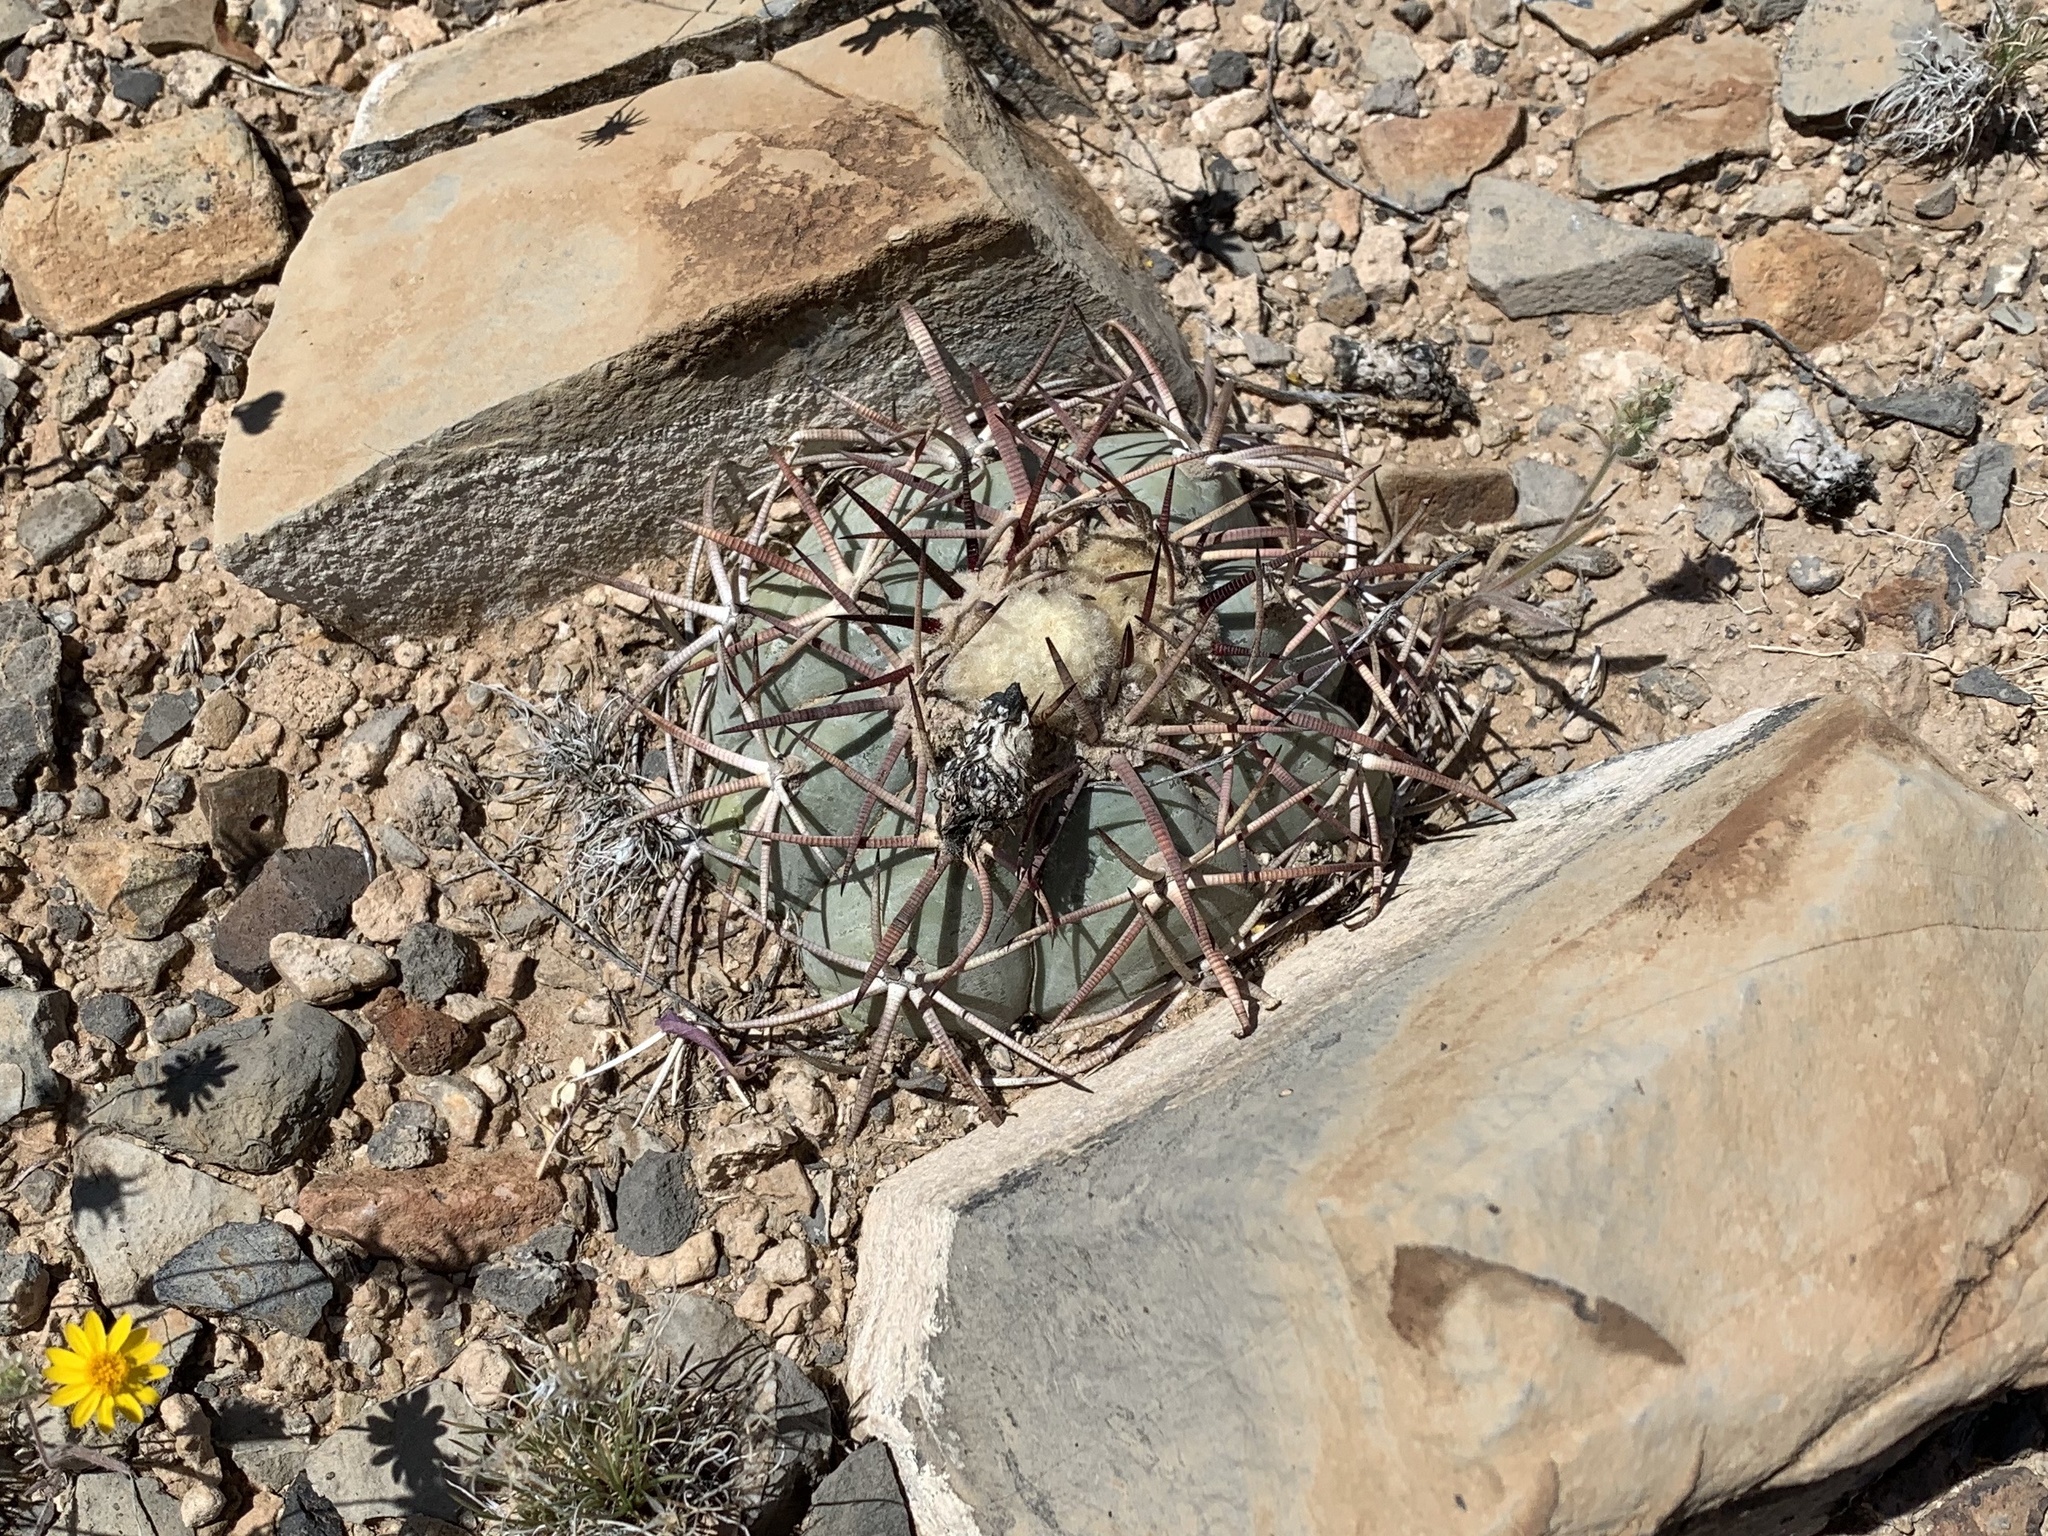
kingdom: Plantae
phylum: Tracheophyta
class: Magnoliopsida
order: Caryophyllales
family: Cactaceae
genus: Echinocactus
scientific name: Echinocactus horizonthalonius
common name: Devilshead
